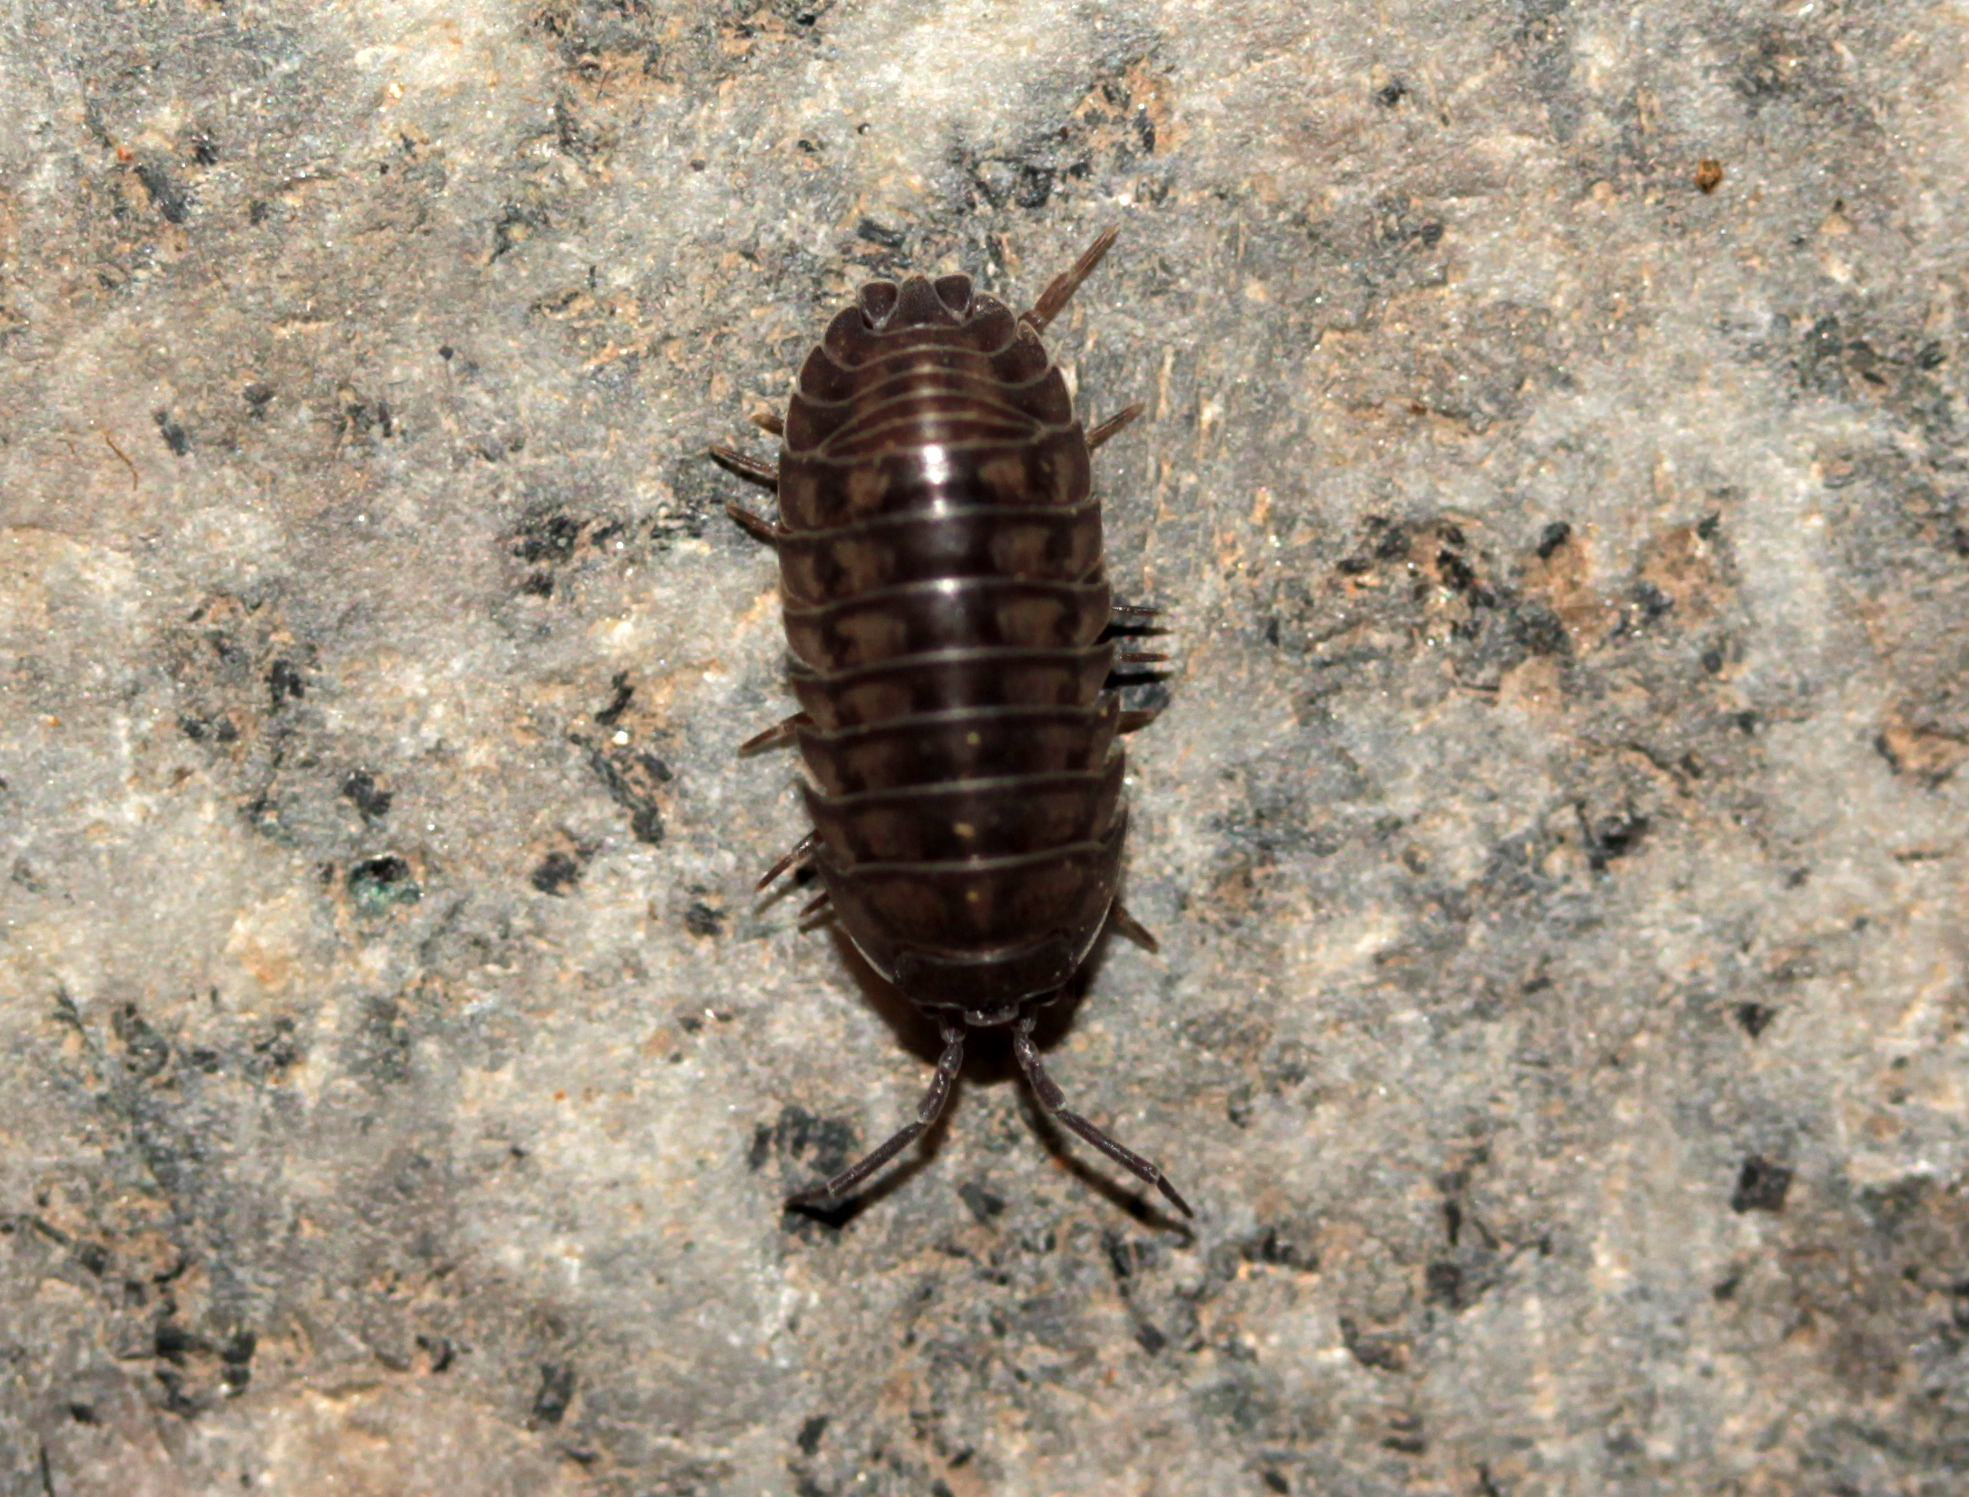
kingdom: Animalia
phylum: Arthropoda
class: Malacostraca
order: Isopoda
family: Armadillidiidae
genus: Armadillidium
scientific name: Armadillidium nasatum
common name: Isopod
